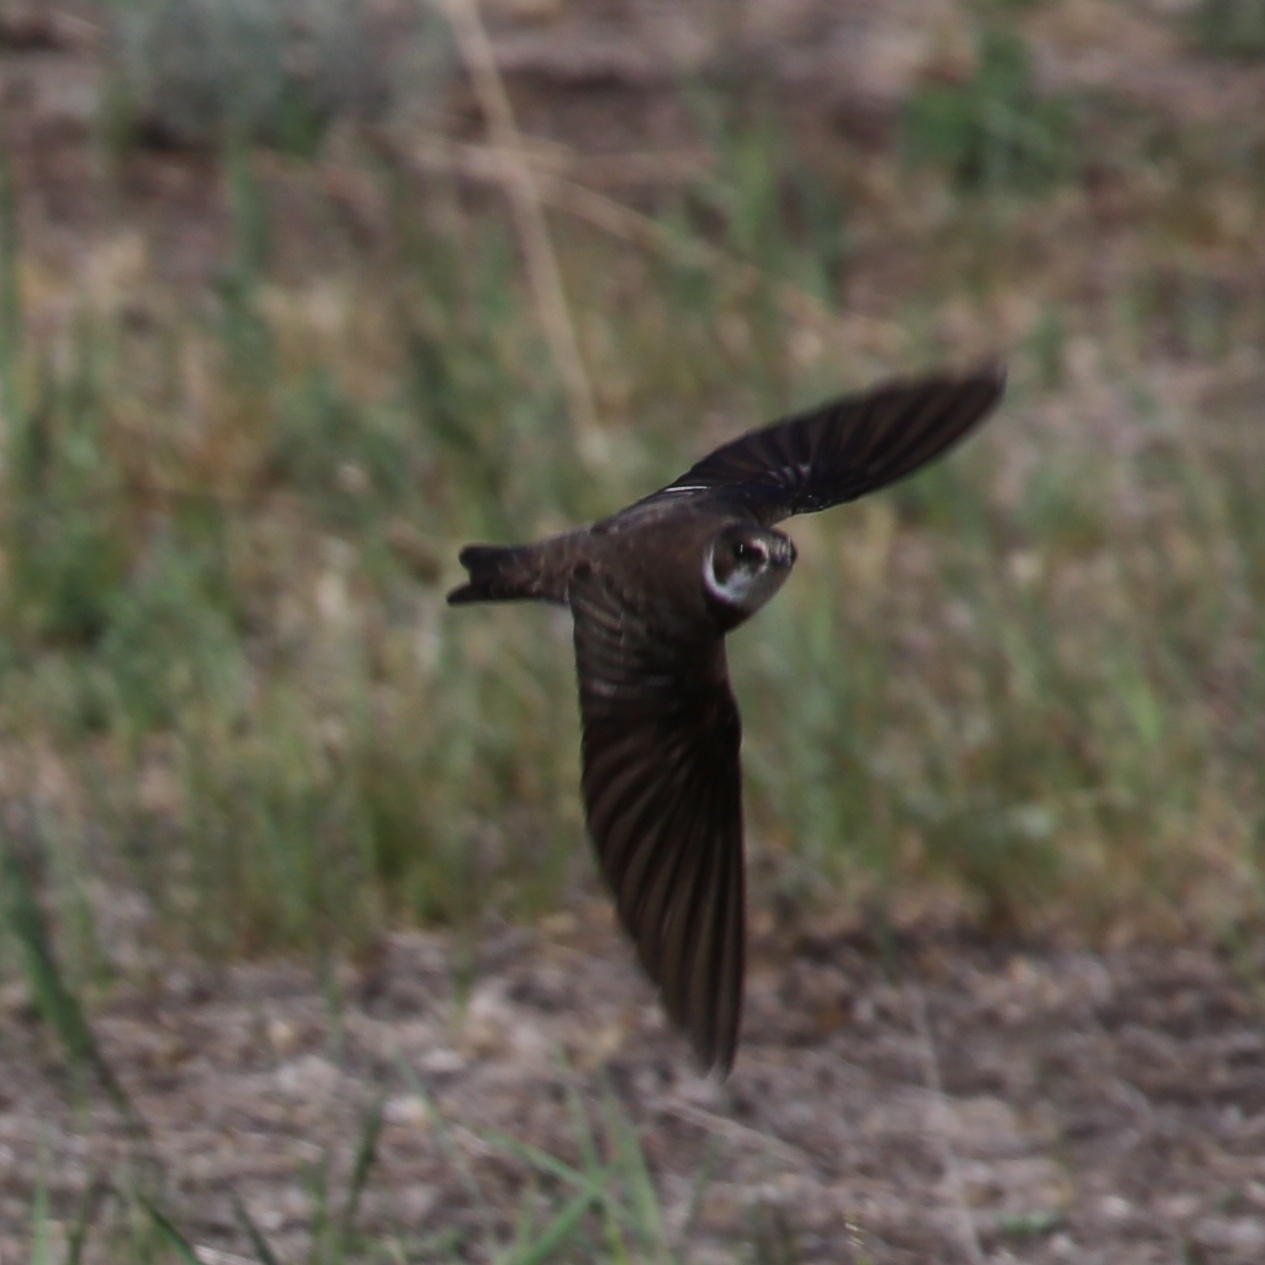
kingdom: Animalia
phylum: Chordata
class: Aves
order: Passeriformes
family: Hirundinidae
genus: Riparia
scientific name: Riparia riparia
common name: Sand martin
